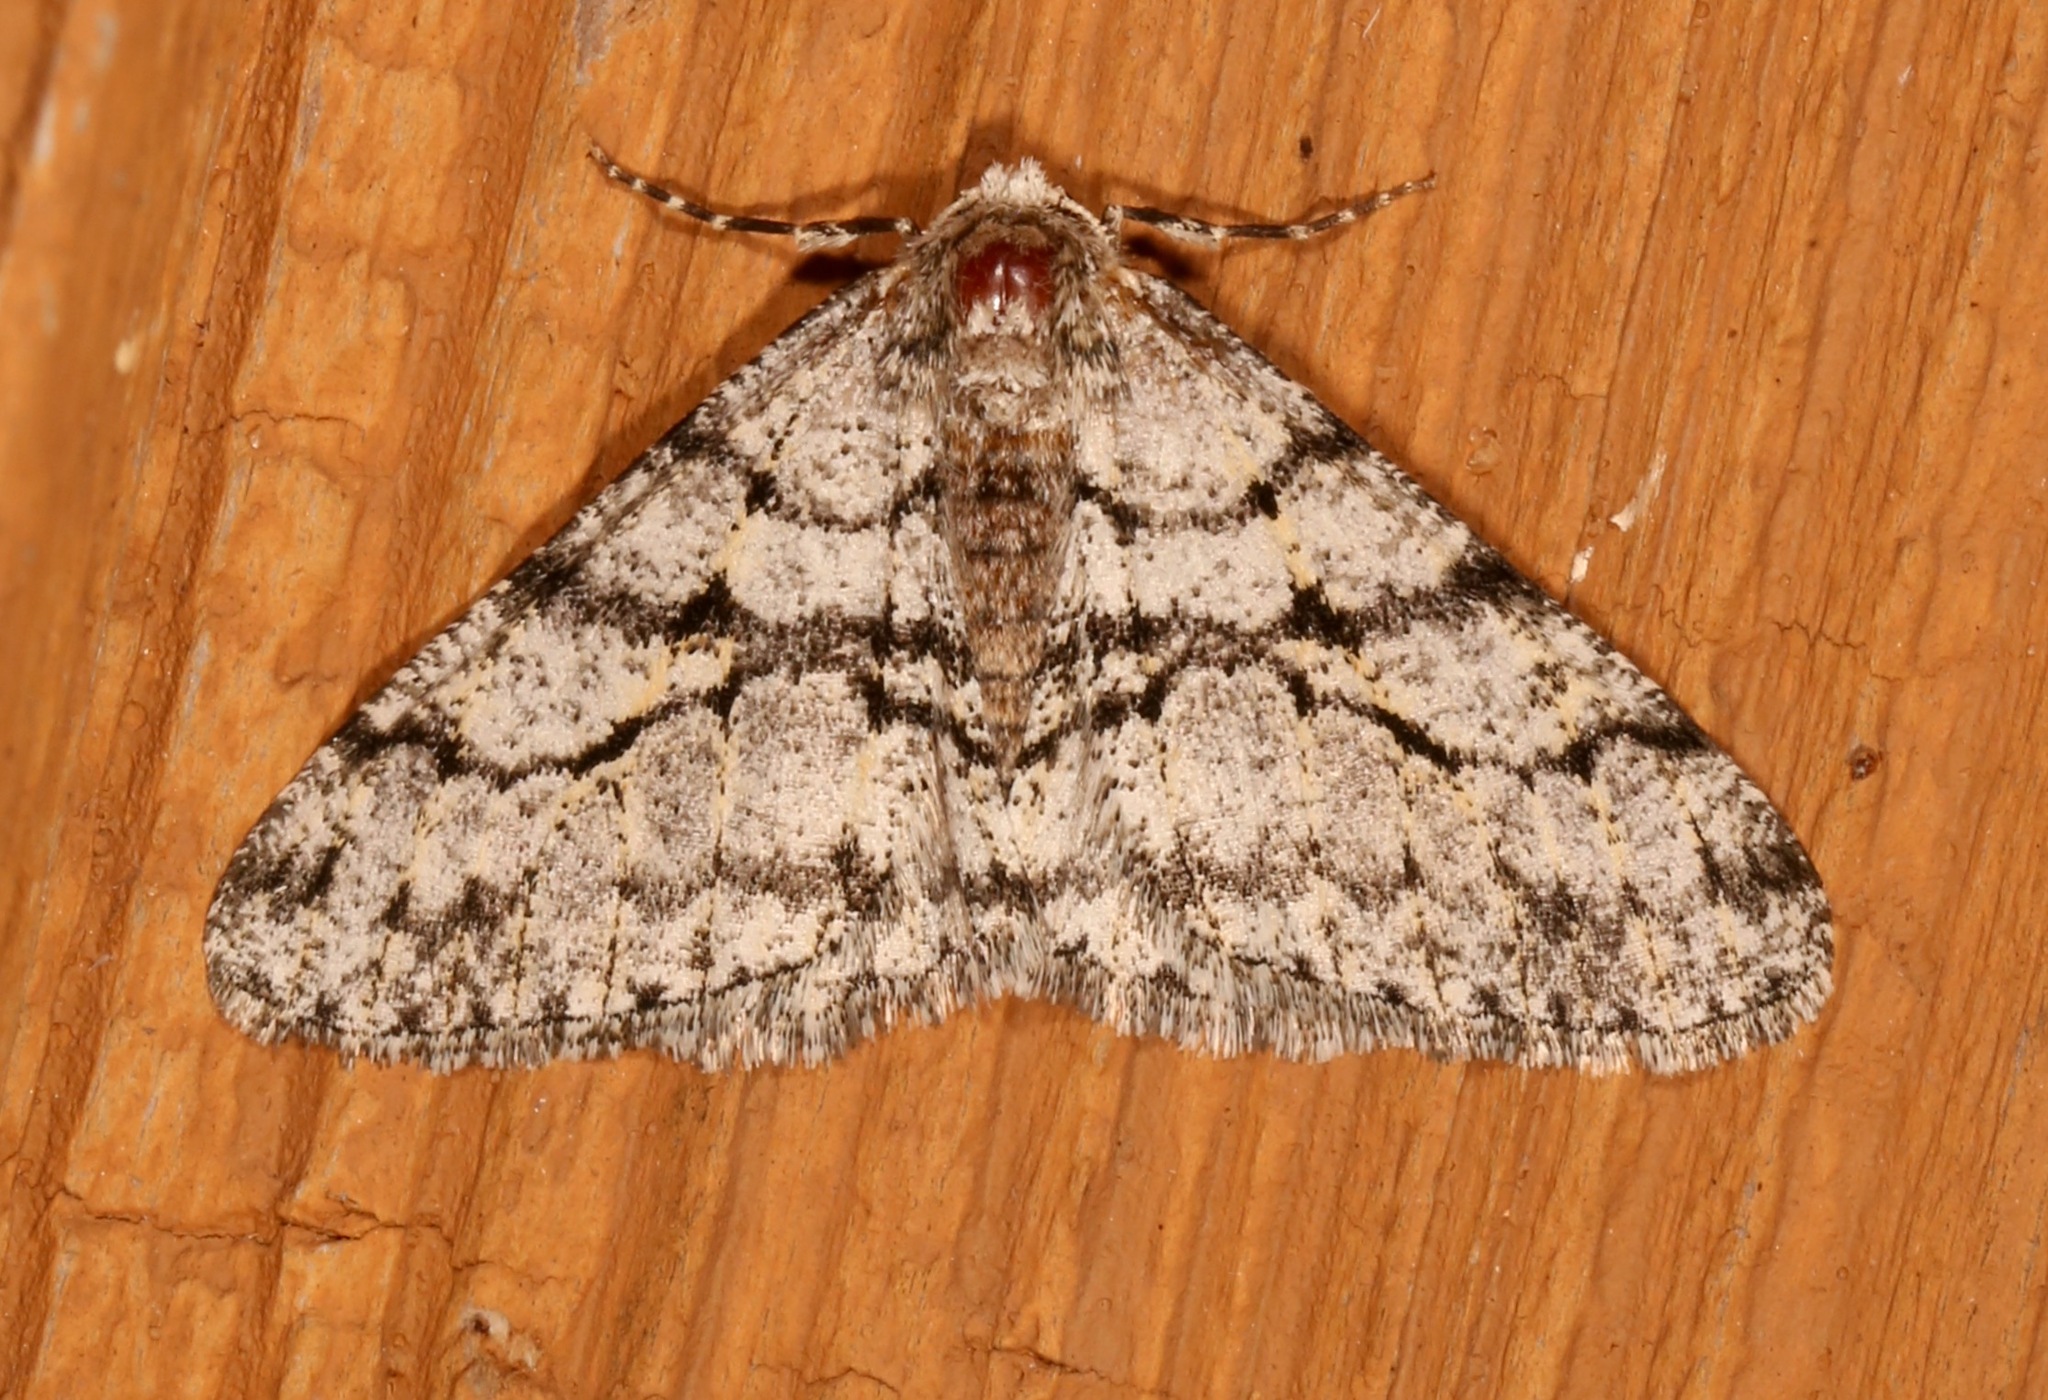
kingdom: Animalia
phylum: Arthropoda
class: Insecta
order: Lepidoptera
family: Geometridae
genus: Phigalia
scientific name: Phigalia titea
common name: Spiny looper
